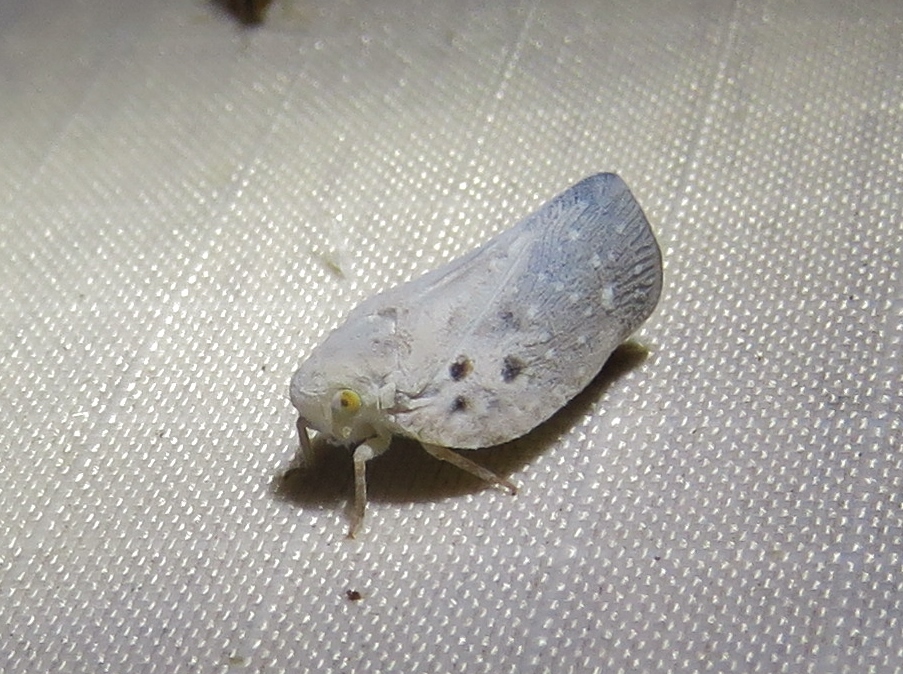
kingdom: Animalia
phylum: Arthropoda
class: Insecta
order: Hemiptera
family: Flatidae
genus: Metcalfa
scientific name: Metcalfa pruinosa
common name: Citrus flatid planthopper
